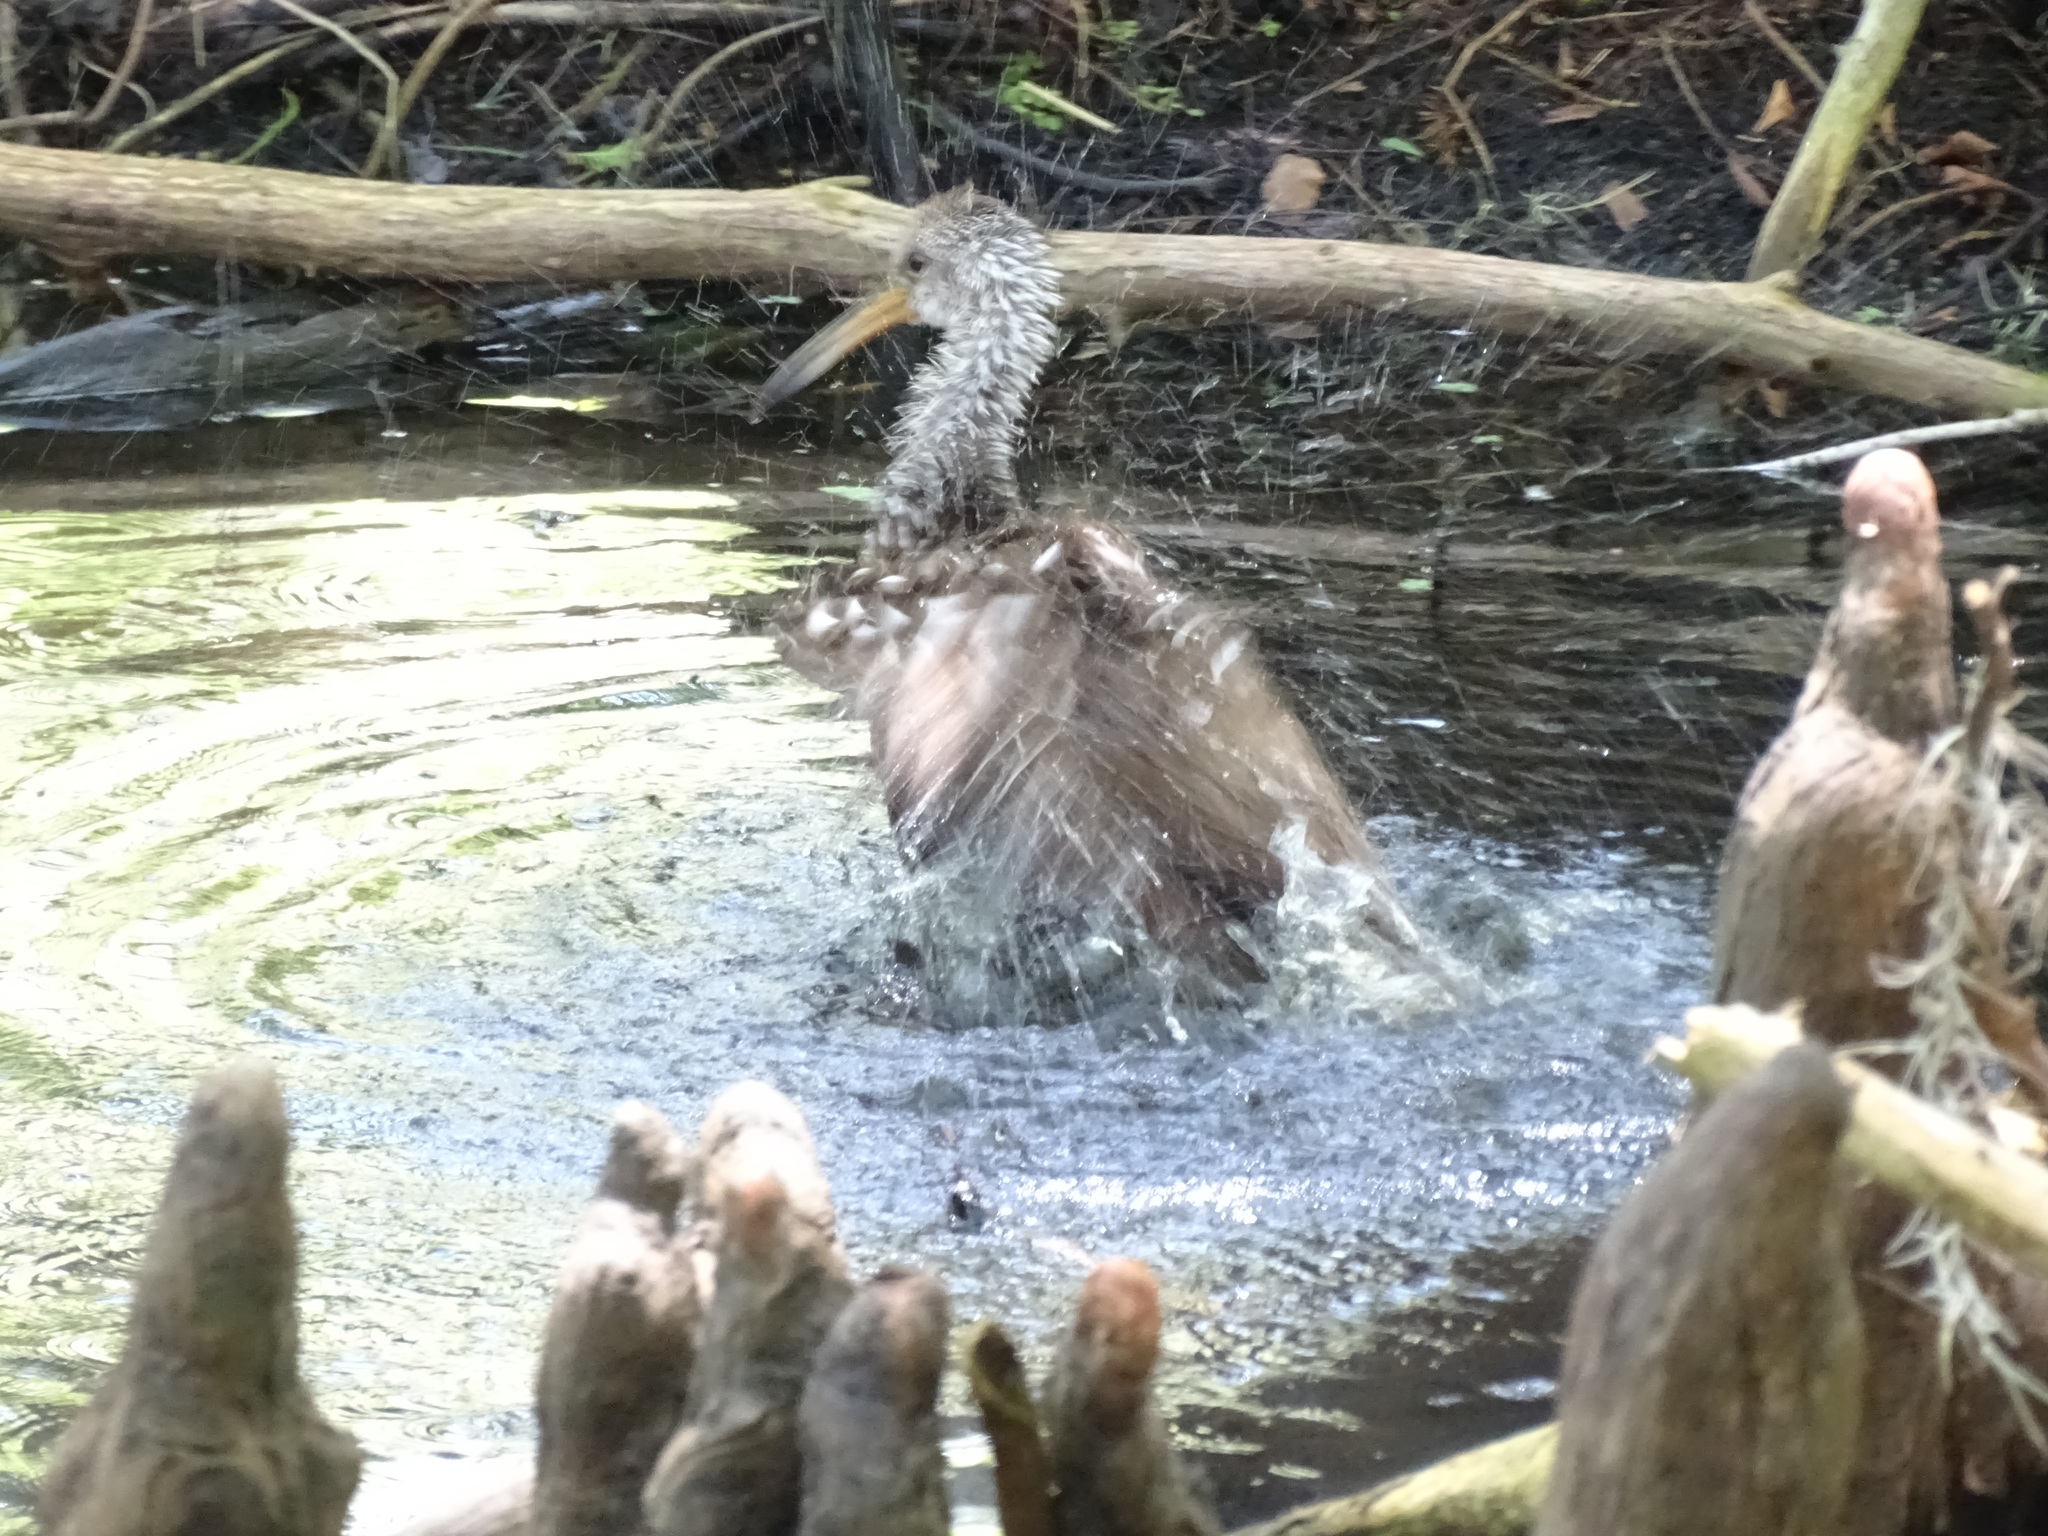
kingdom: Animalia
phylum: Chordata
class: Aves
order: Gruiformes
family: Aramidae
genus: Aramus
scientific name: Aramus guarauna
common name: Limpkin
